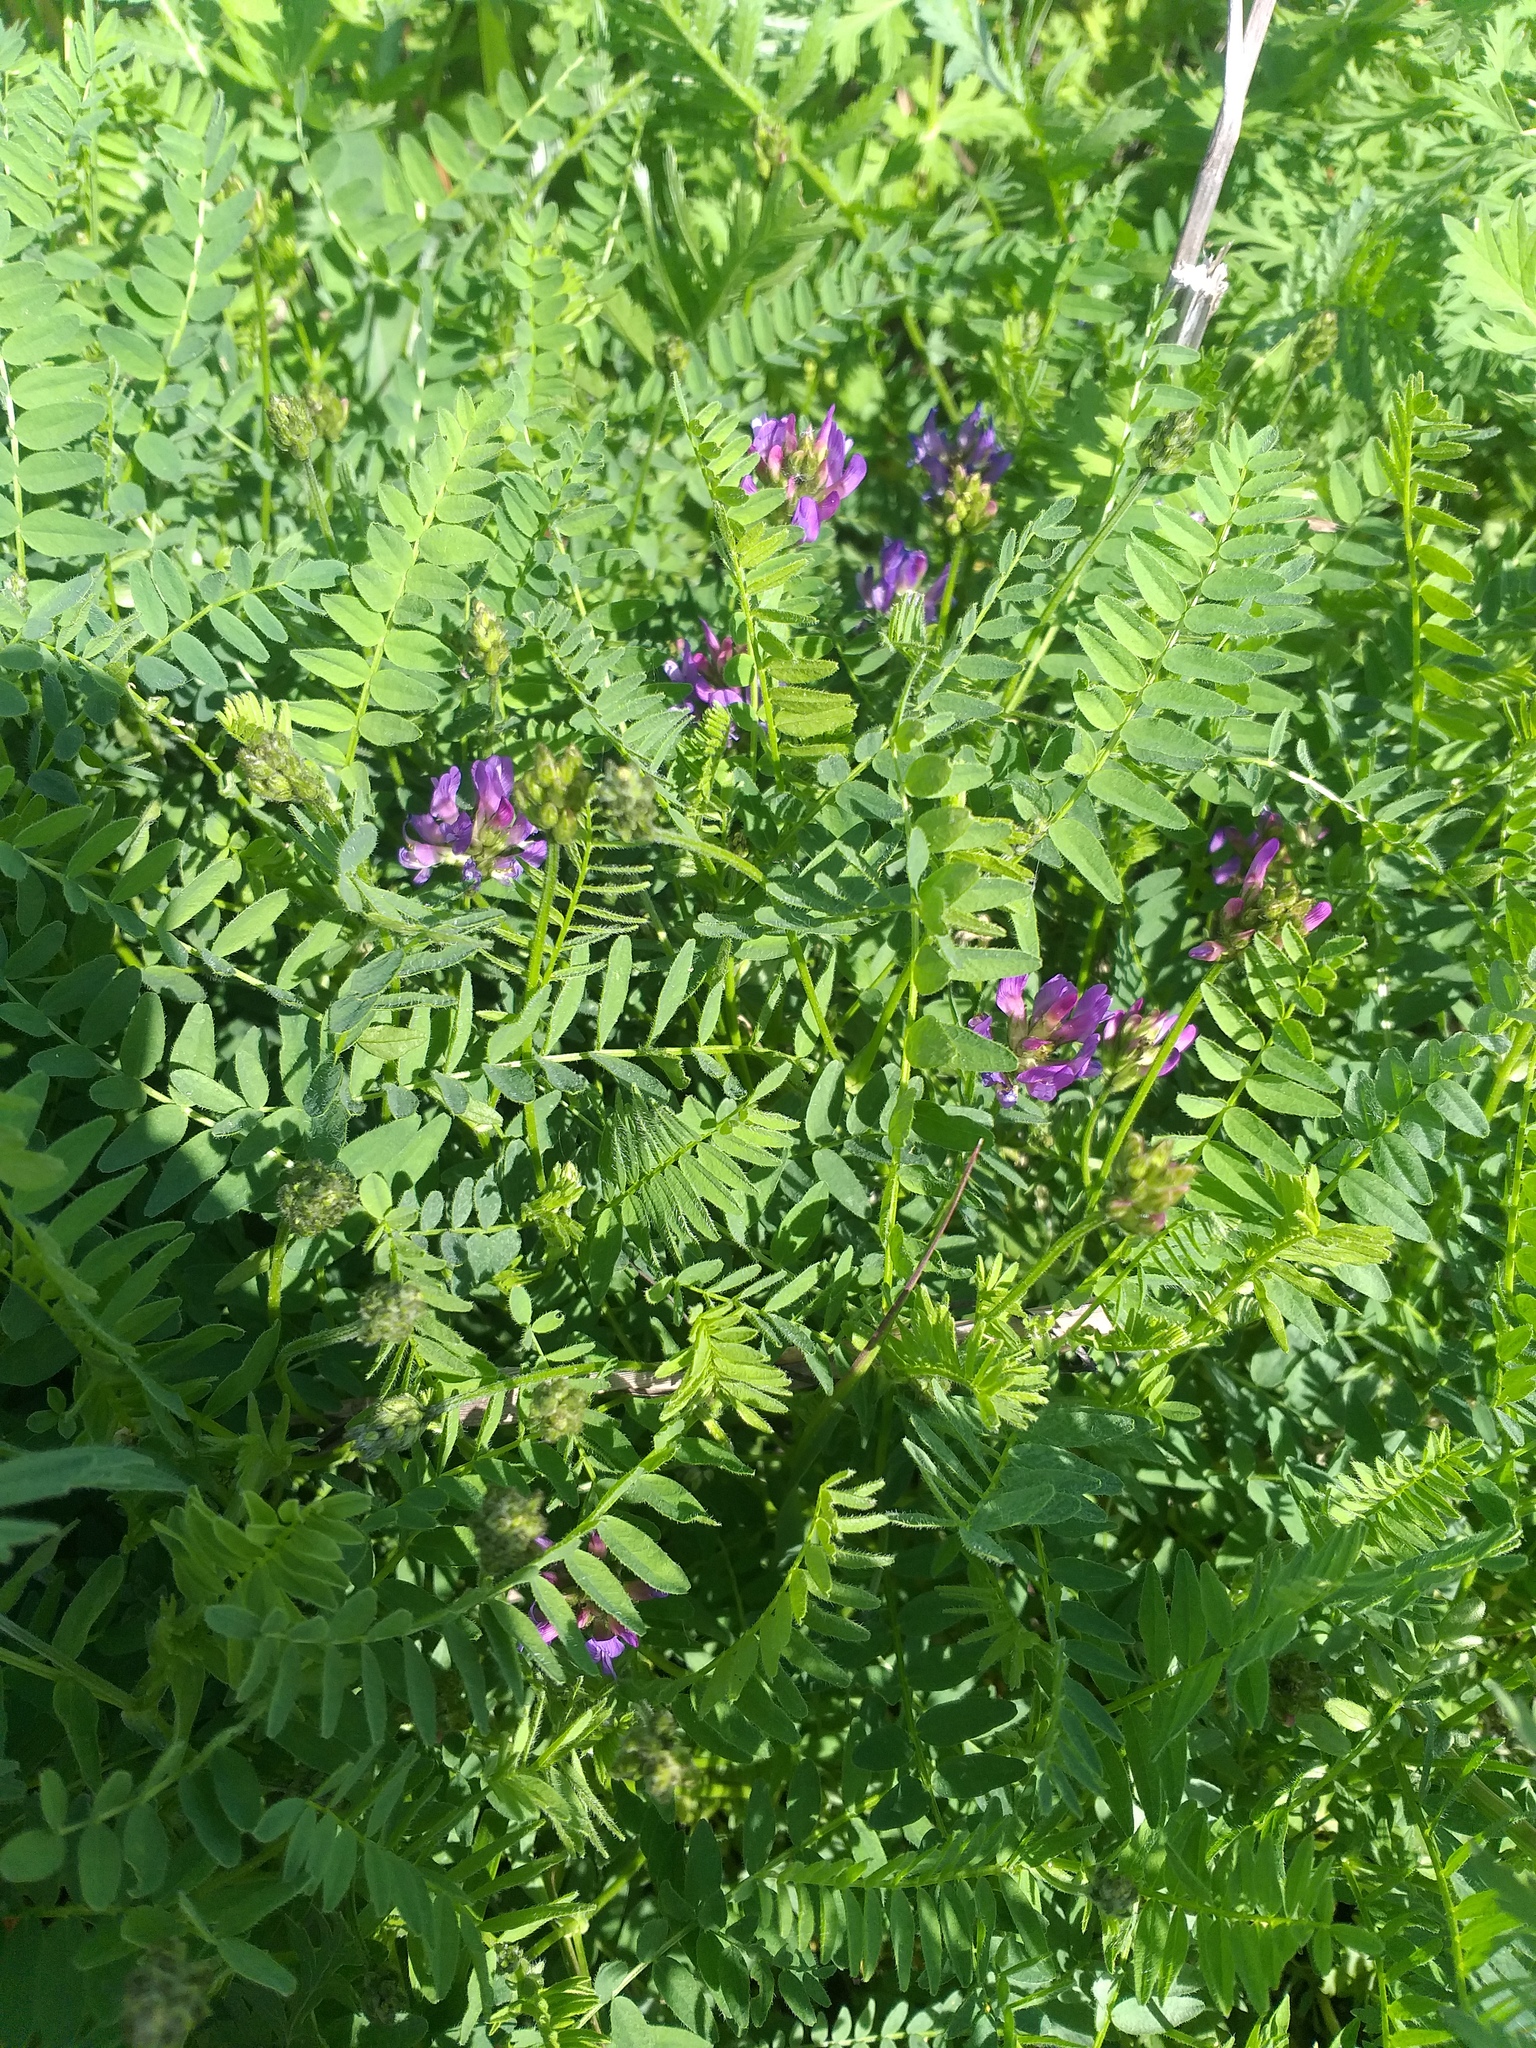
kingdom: Plantae
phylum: Tracheophyta
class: Magnoliopsida
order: Fabales
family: Fabaceae
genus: Astragalus
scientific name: Astragalus danicus
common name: Purple milk-vetch
